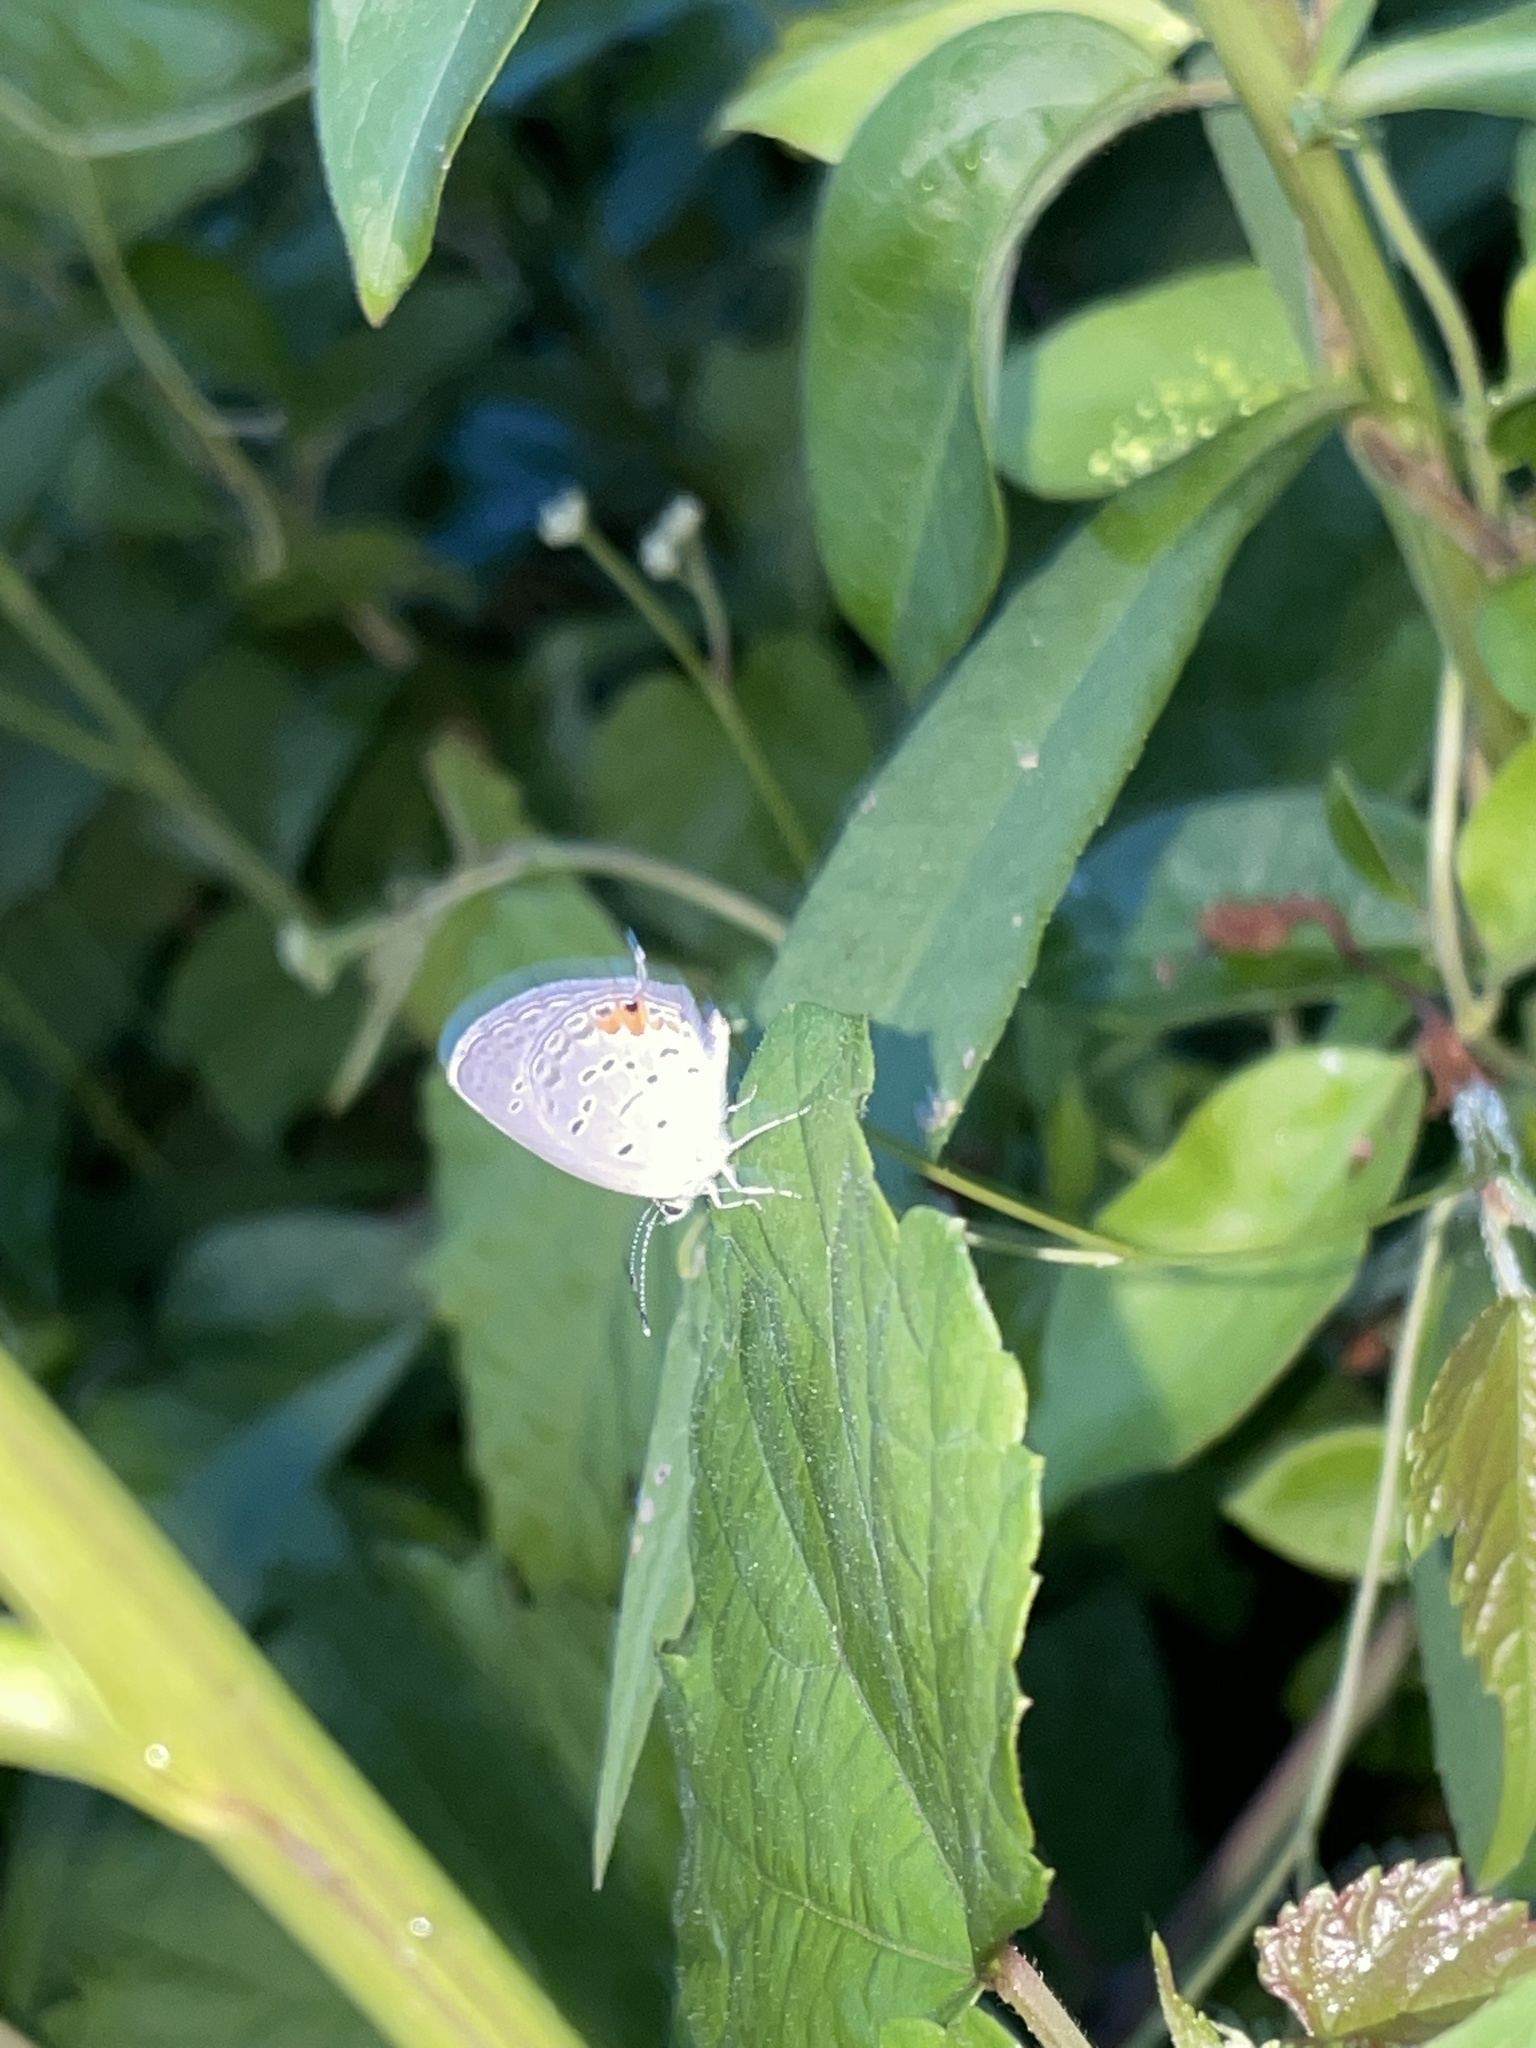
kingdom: Animalia
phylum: Arthropoda
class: Insecta
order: Lepidoptera
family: Lycaenidae
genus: Elkalyce
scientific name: Elkalyce comyntas
